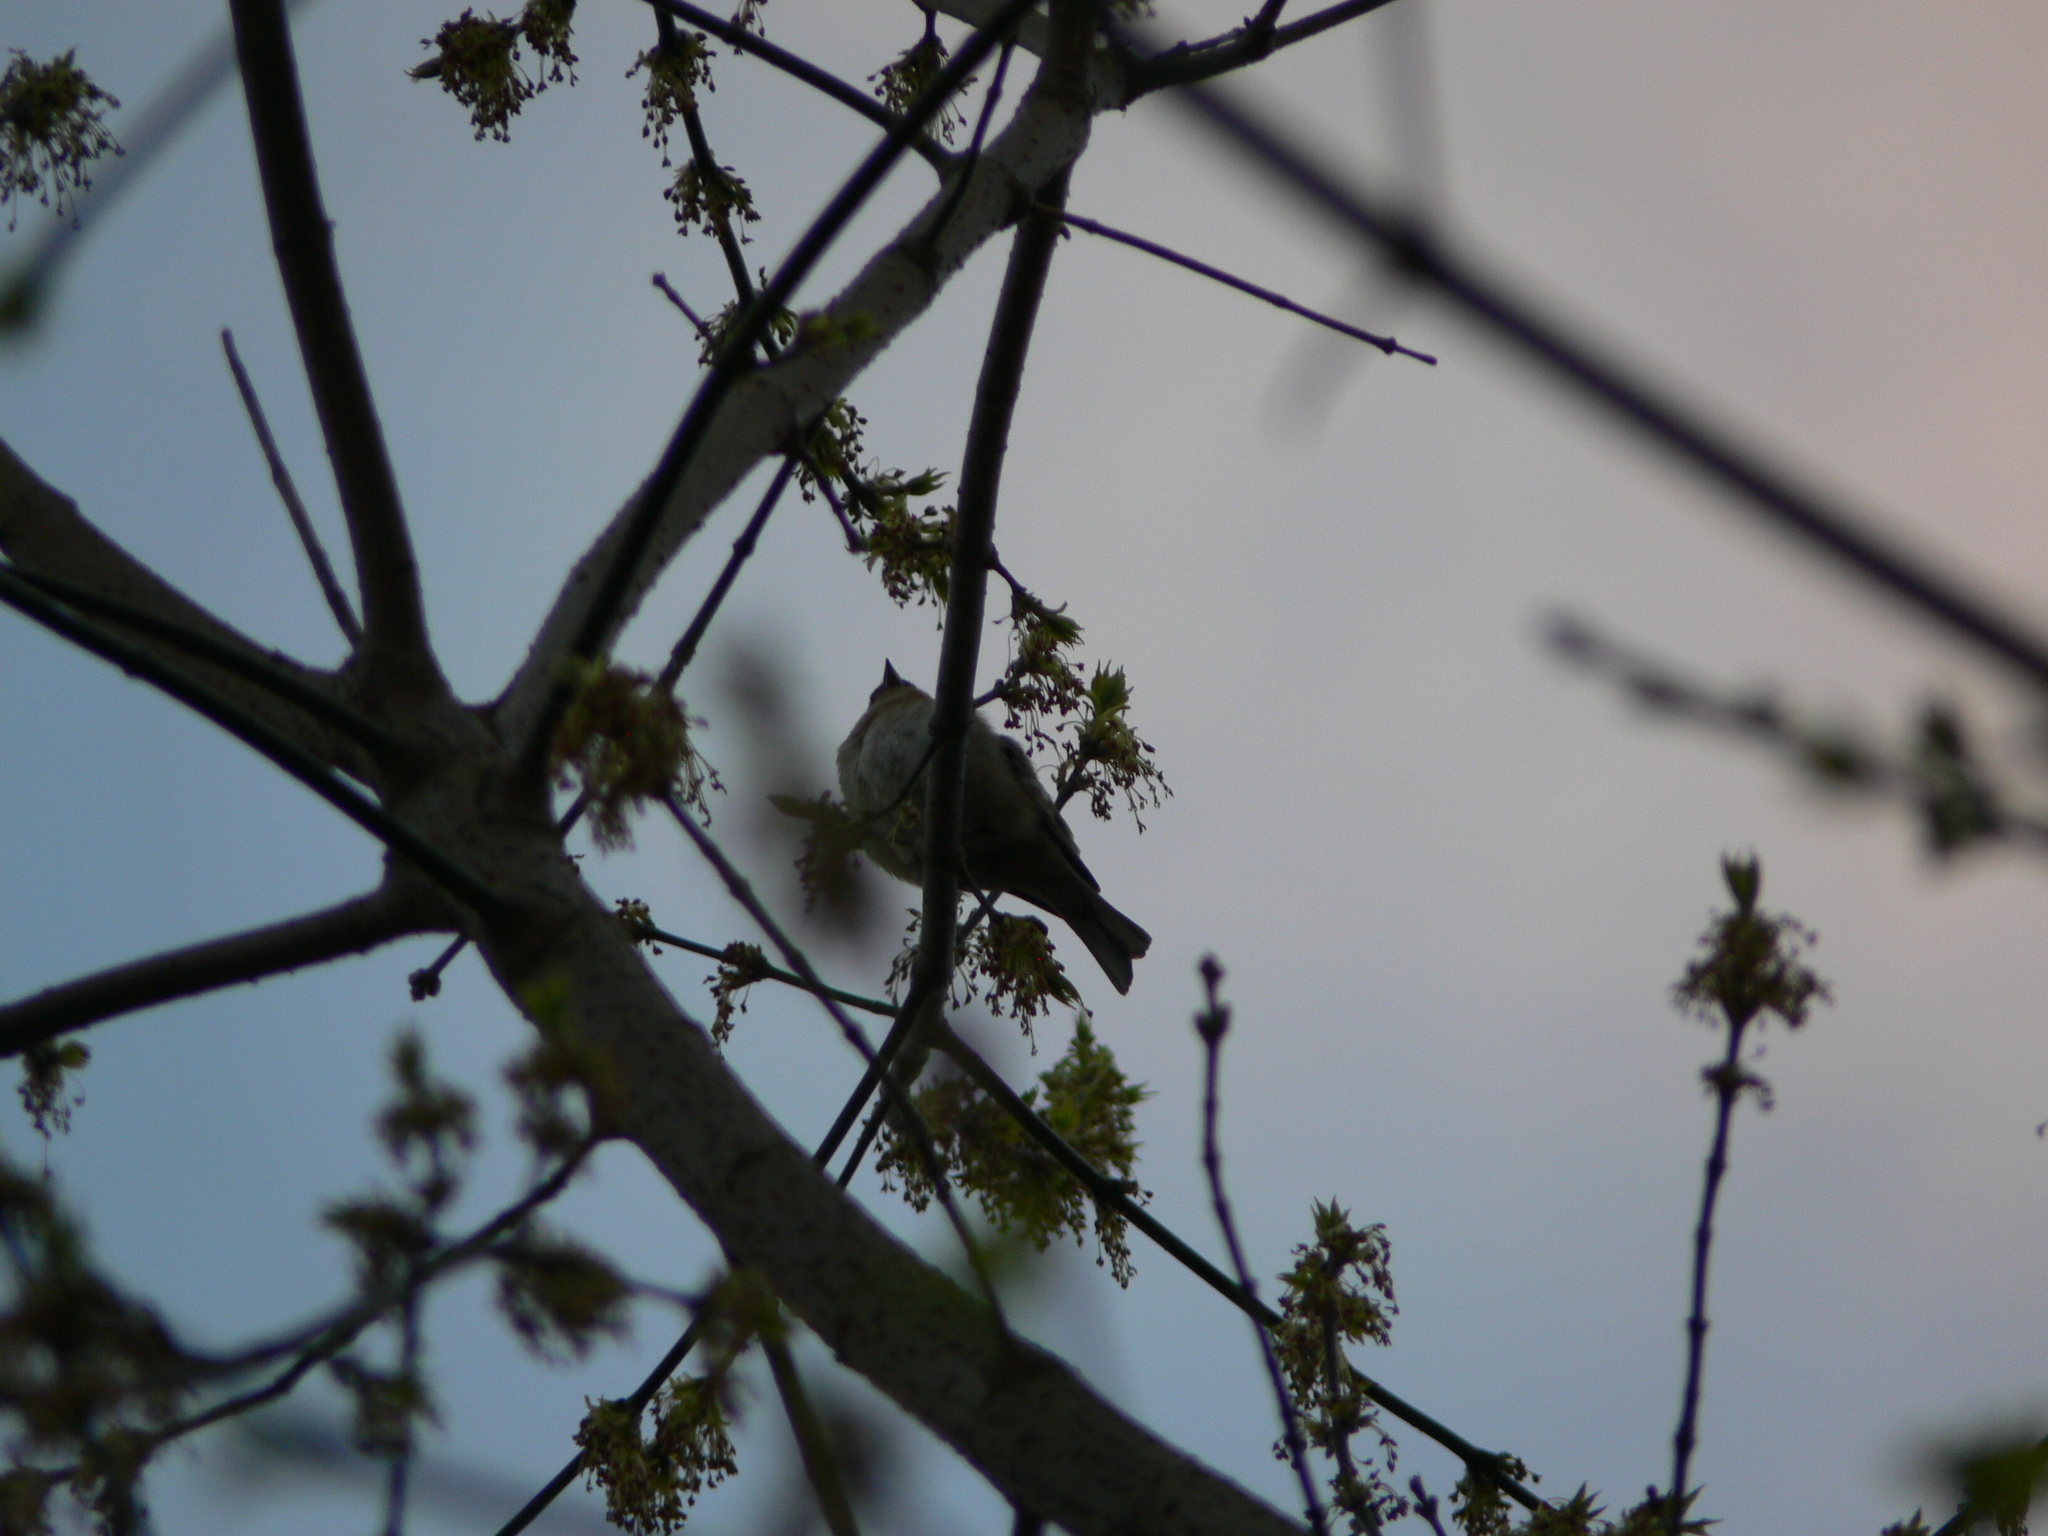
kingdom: Animalia
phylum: Chordata
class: Aves
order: Passeriformes
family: Fringillidae
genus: Fringilla
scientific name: Fringilla coelebs
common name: Common chaffinch
